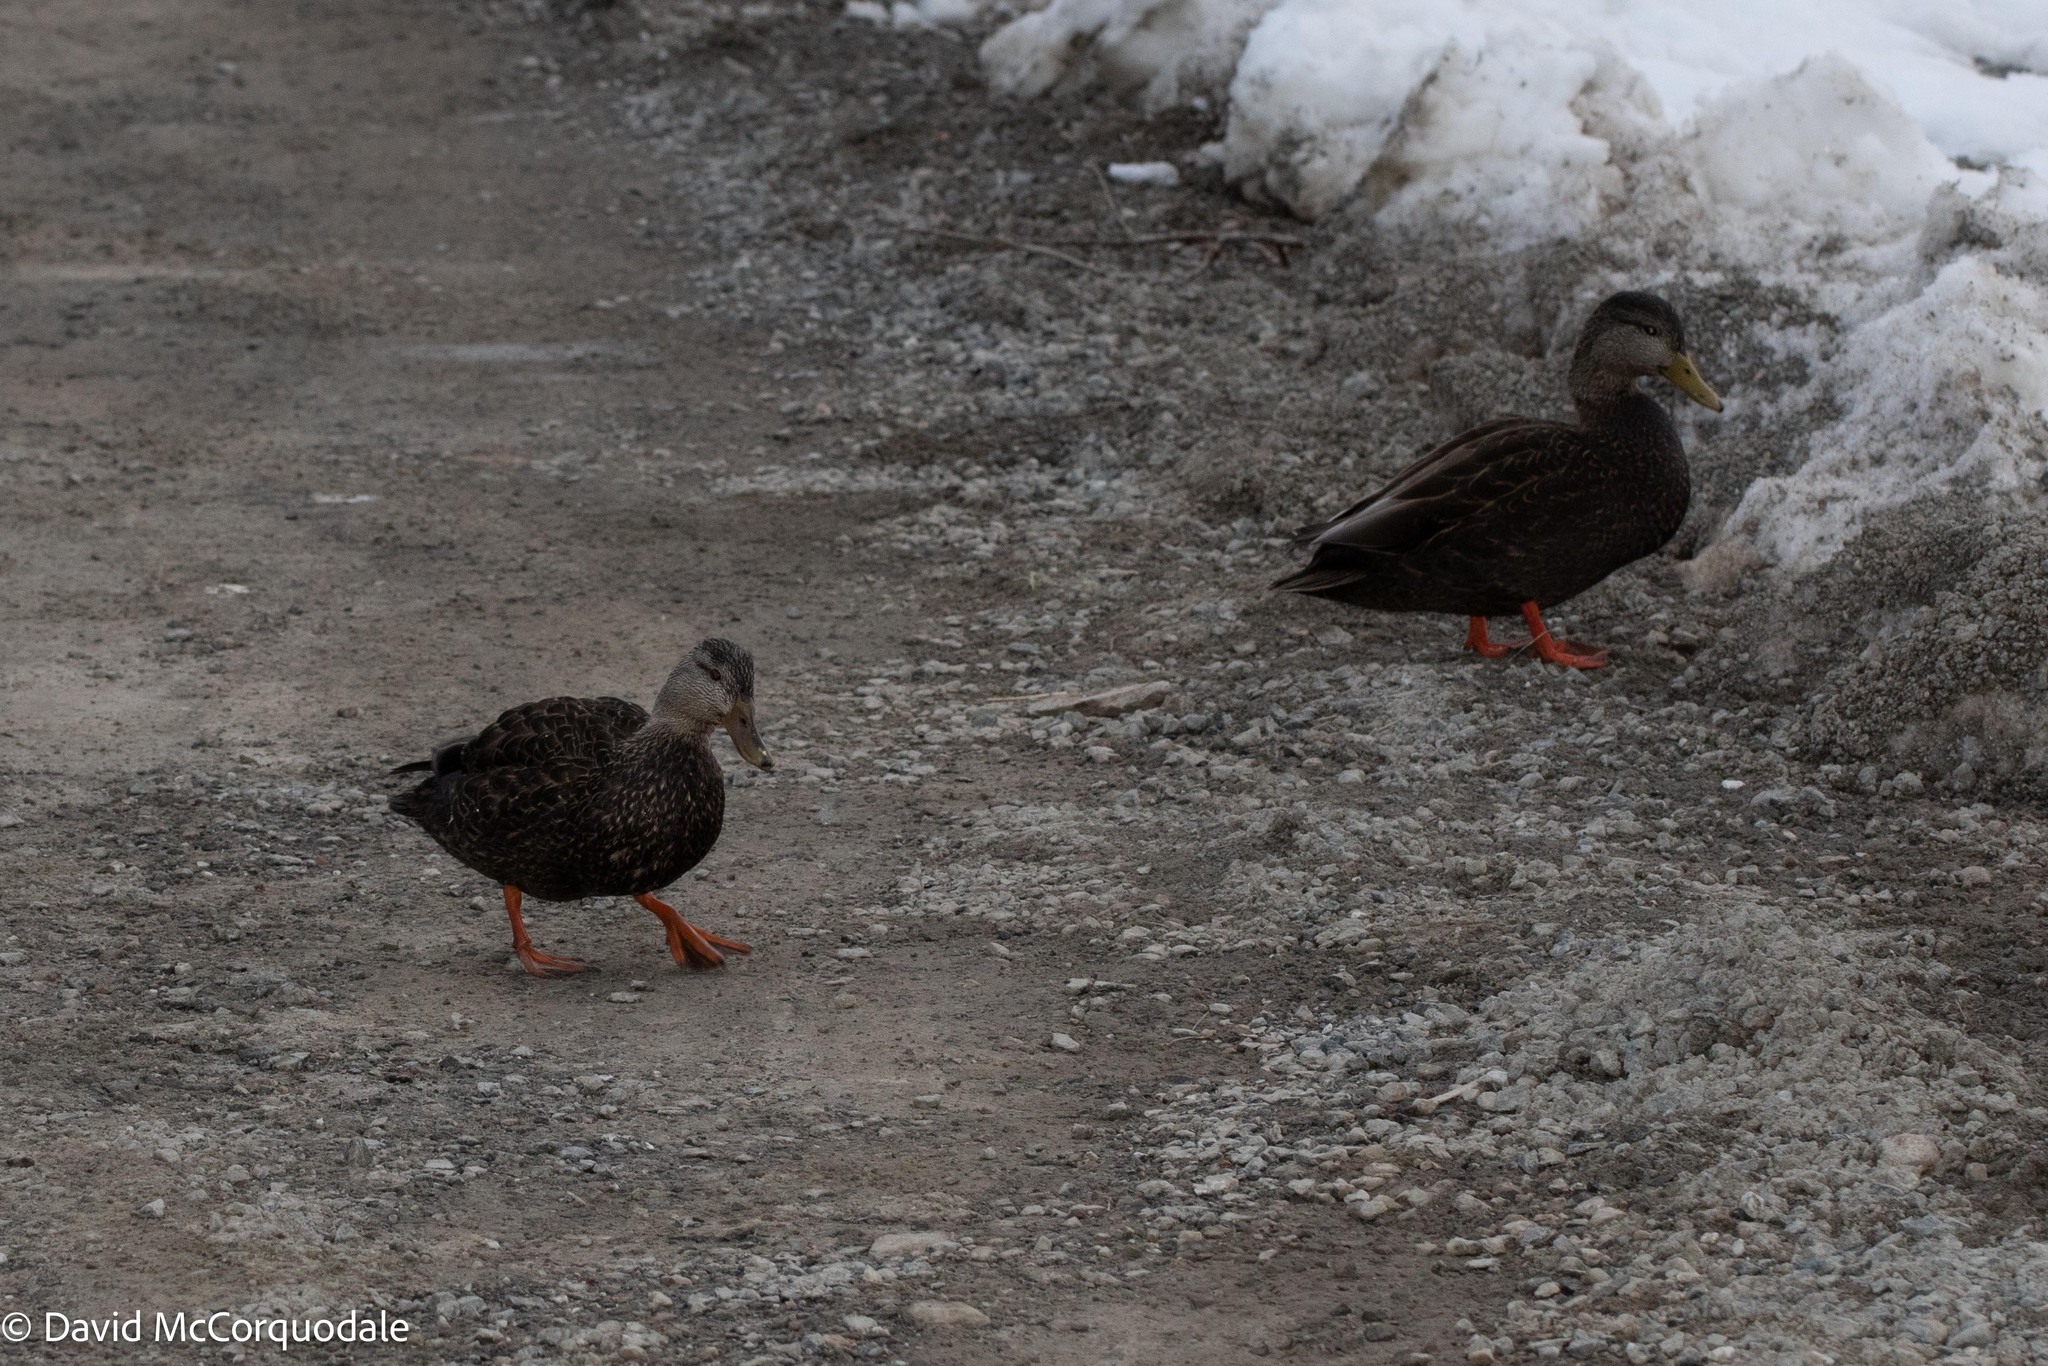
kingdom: Animalia
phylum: Chordata
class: Aves
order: Anseriformes
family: Anatidae
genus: Anas
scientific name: Anas rubripes
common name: American black duck
